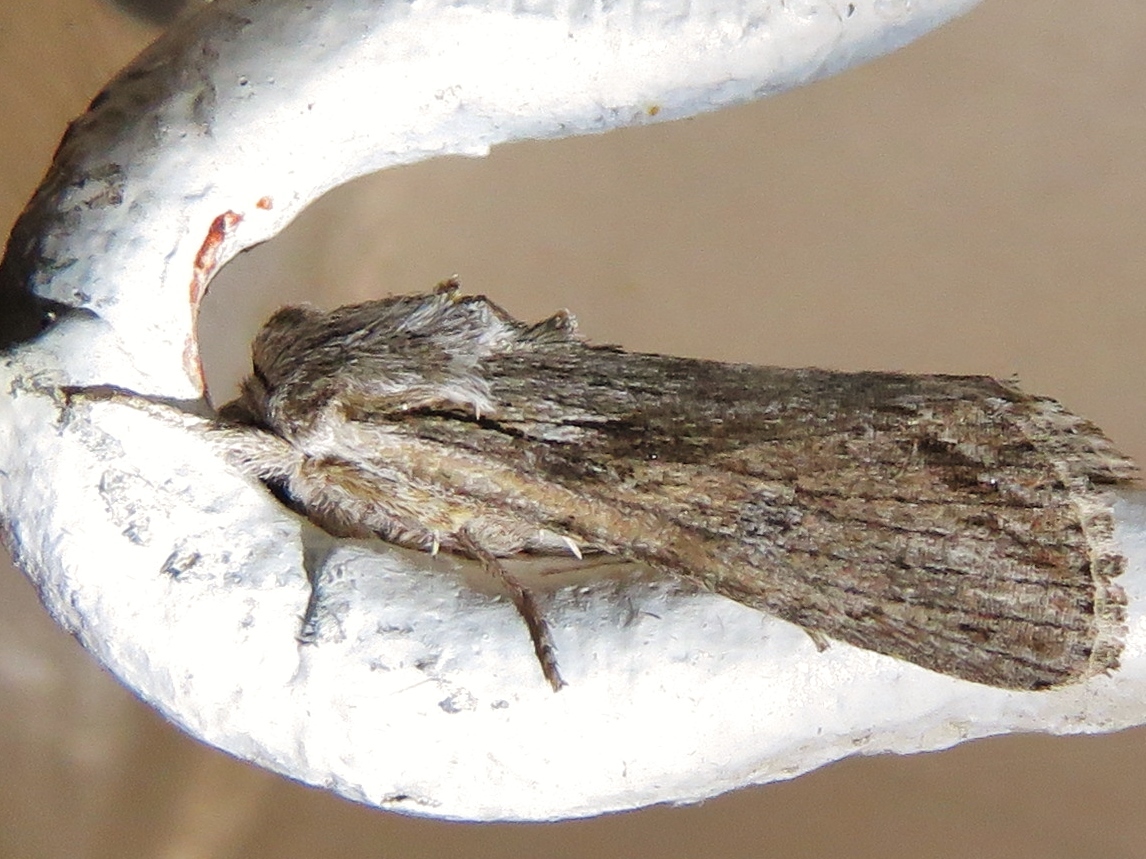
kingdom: Animalia
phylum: Arthropoda
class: Insecta
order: Lepidoptera
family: Noctuidae
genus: Spodoptera
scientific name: Spodoptera eridania
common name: Southern army worm
